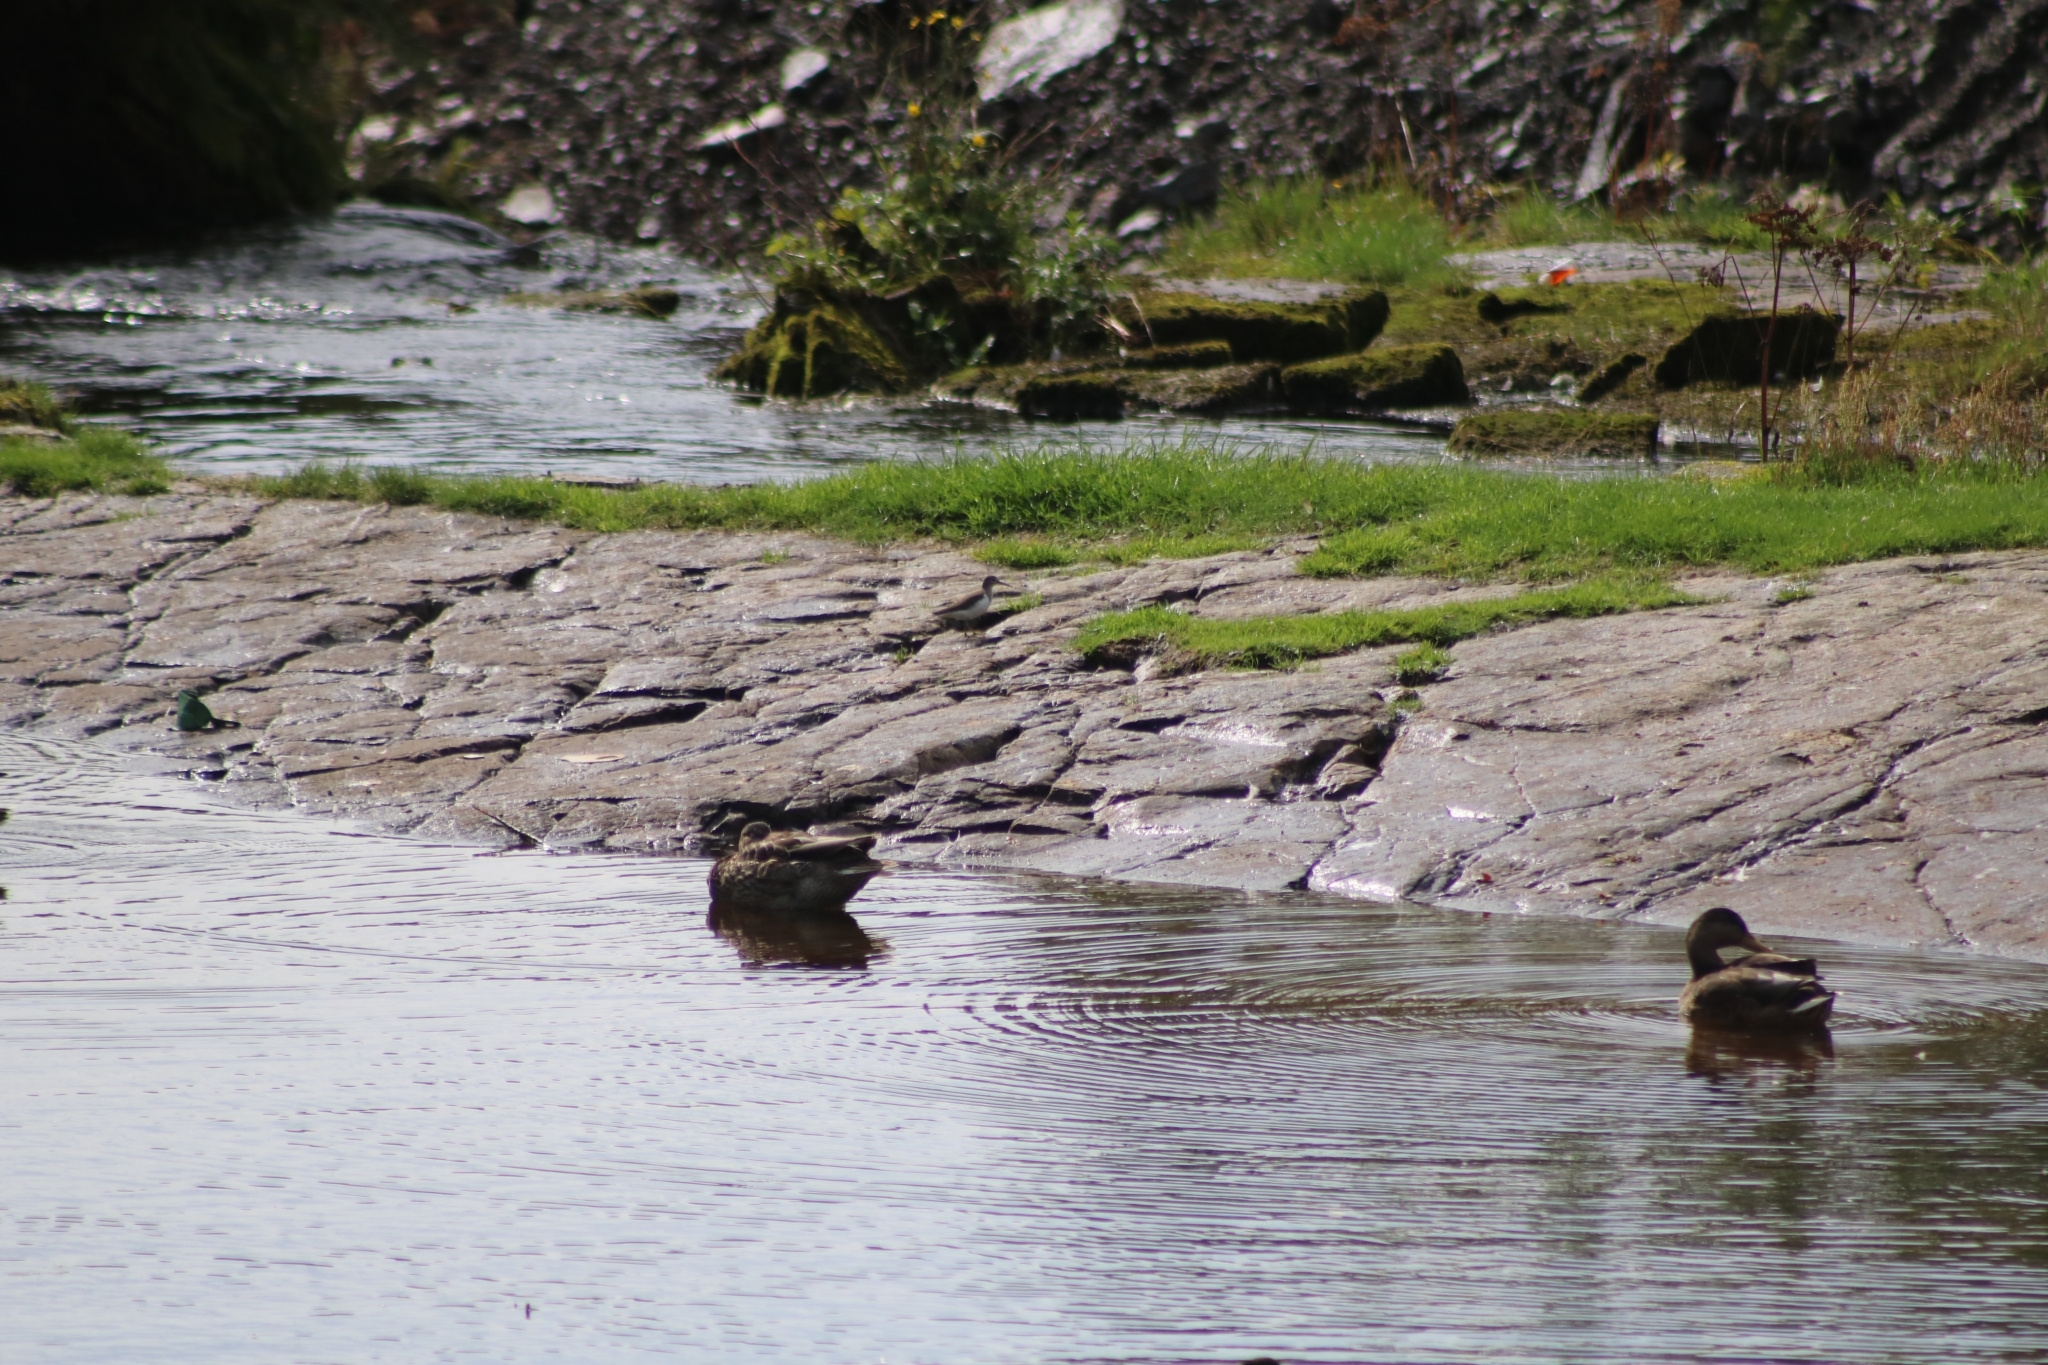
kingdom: Animalia
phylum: Chordata
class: Aves
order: Charadriiformes
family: Scolopacidae
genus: Actitis
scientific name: Actitis hypoleucos
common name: Common sandpiper
